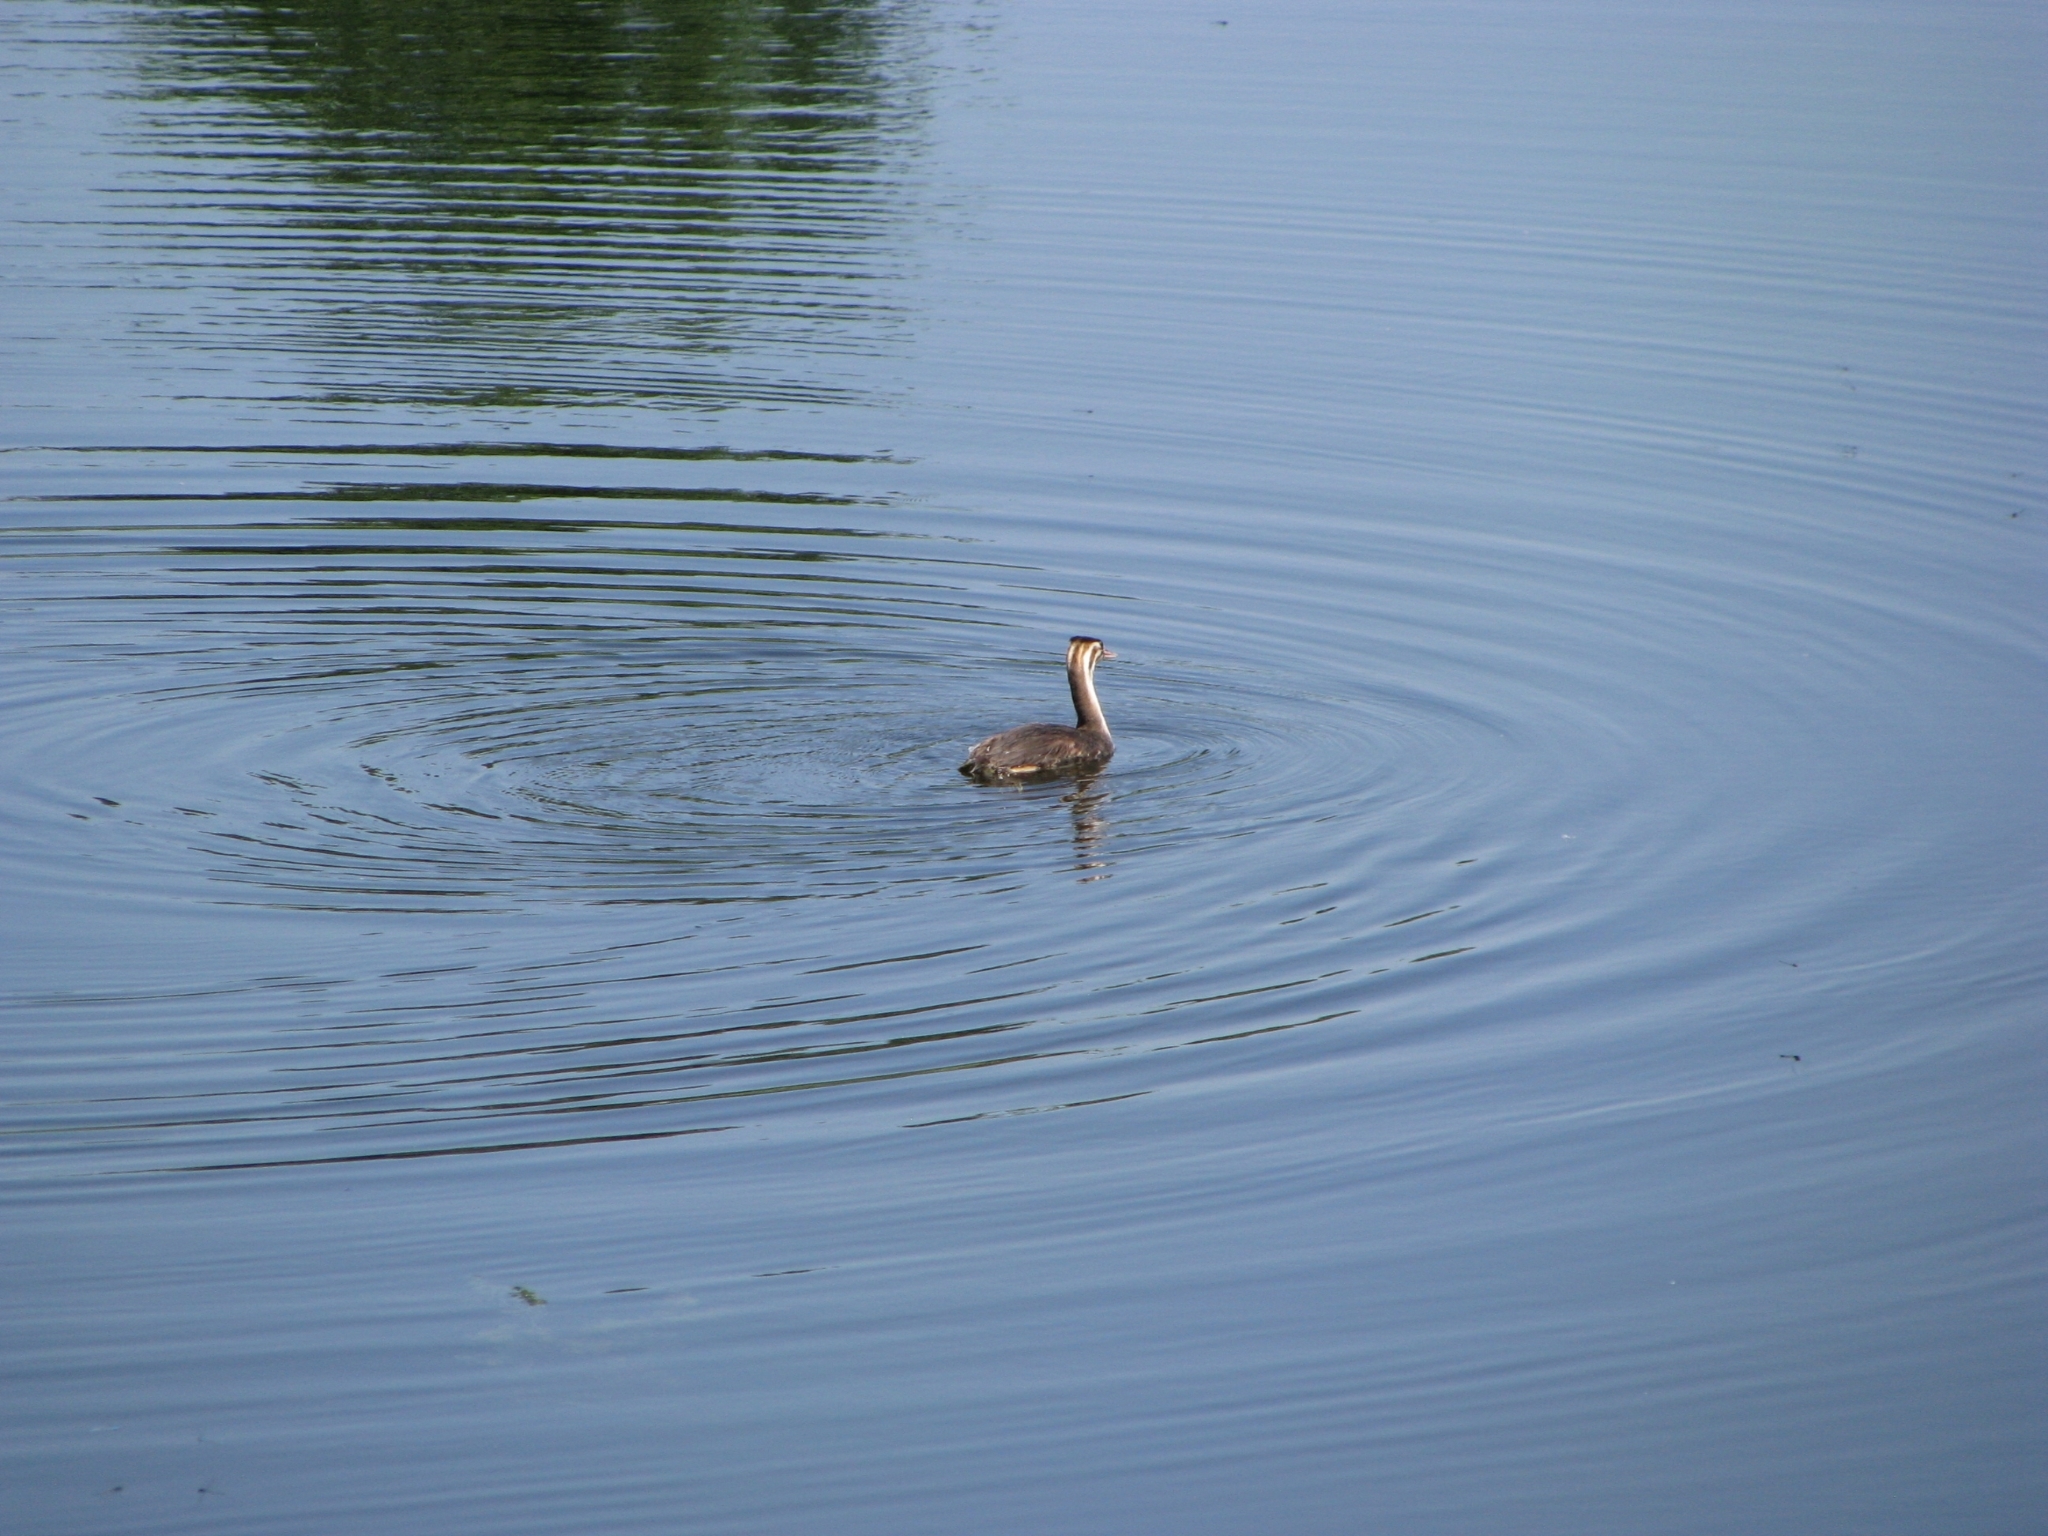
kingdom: Animalia
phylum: Chordata
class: Aves
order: Podicipediformes
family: Podicipedidae
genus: Podiceps
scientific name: Podiceps cristatus
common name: Great crested grebe
